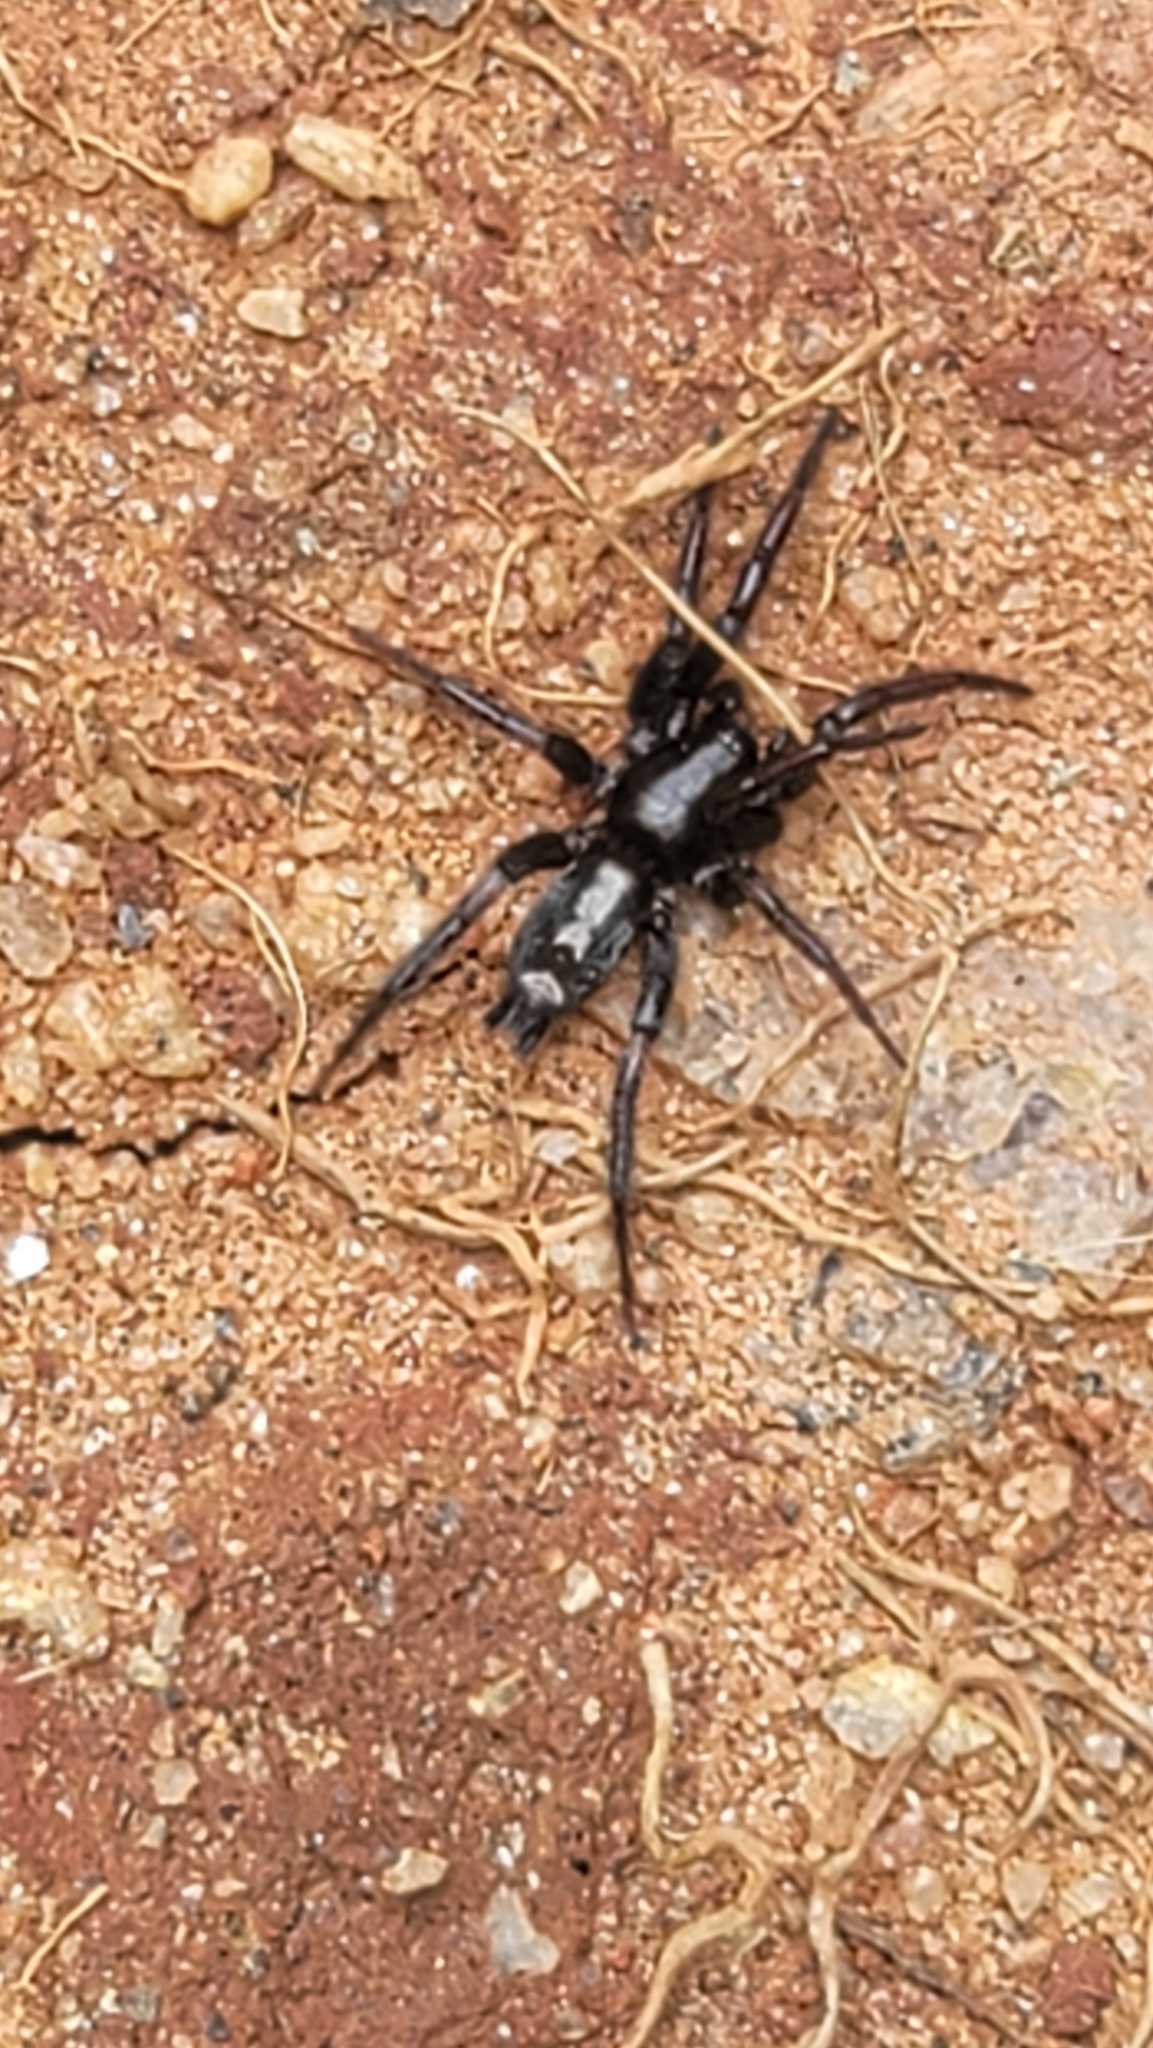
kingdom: Animalia
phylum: Arthropoda
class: Arachnida
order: Araneae
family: Gnaphosidae
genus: Herpyllus
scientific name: Herpyllus ecclesiasticus
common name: Eastern parson spider
